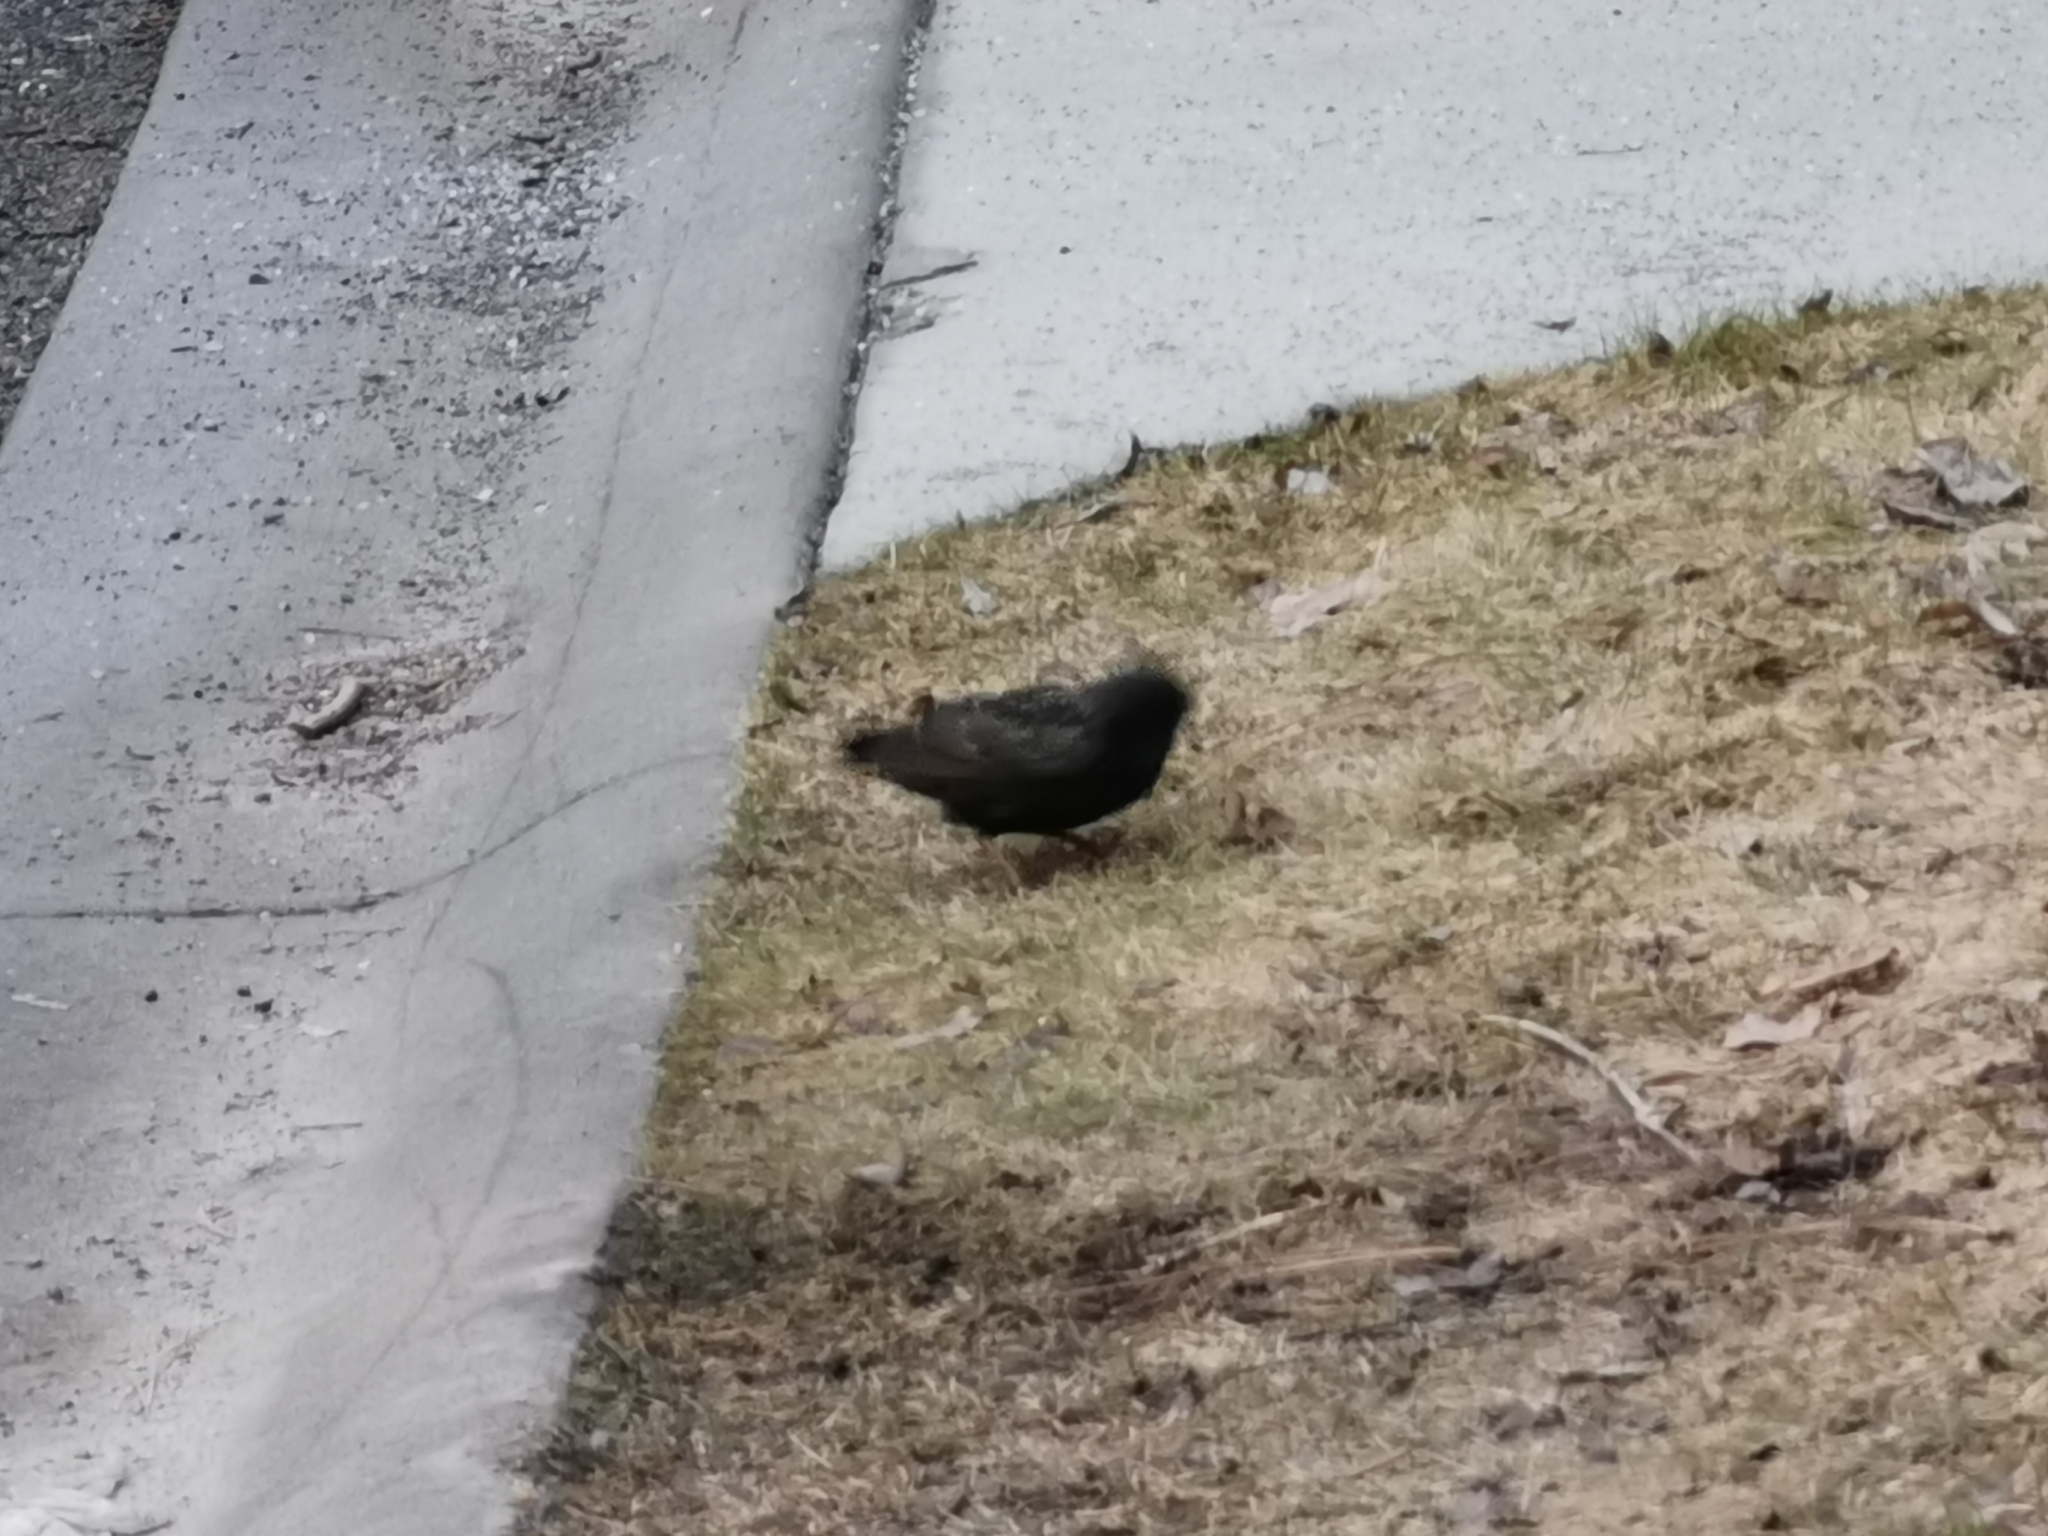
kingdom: Animalia
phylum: Chordata
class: Aves
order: Passeriformes
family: Sturnidae
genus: Sturnus
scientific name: Sturnus vulgaris
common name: Common starling
